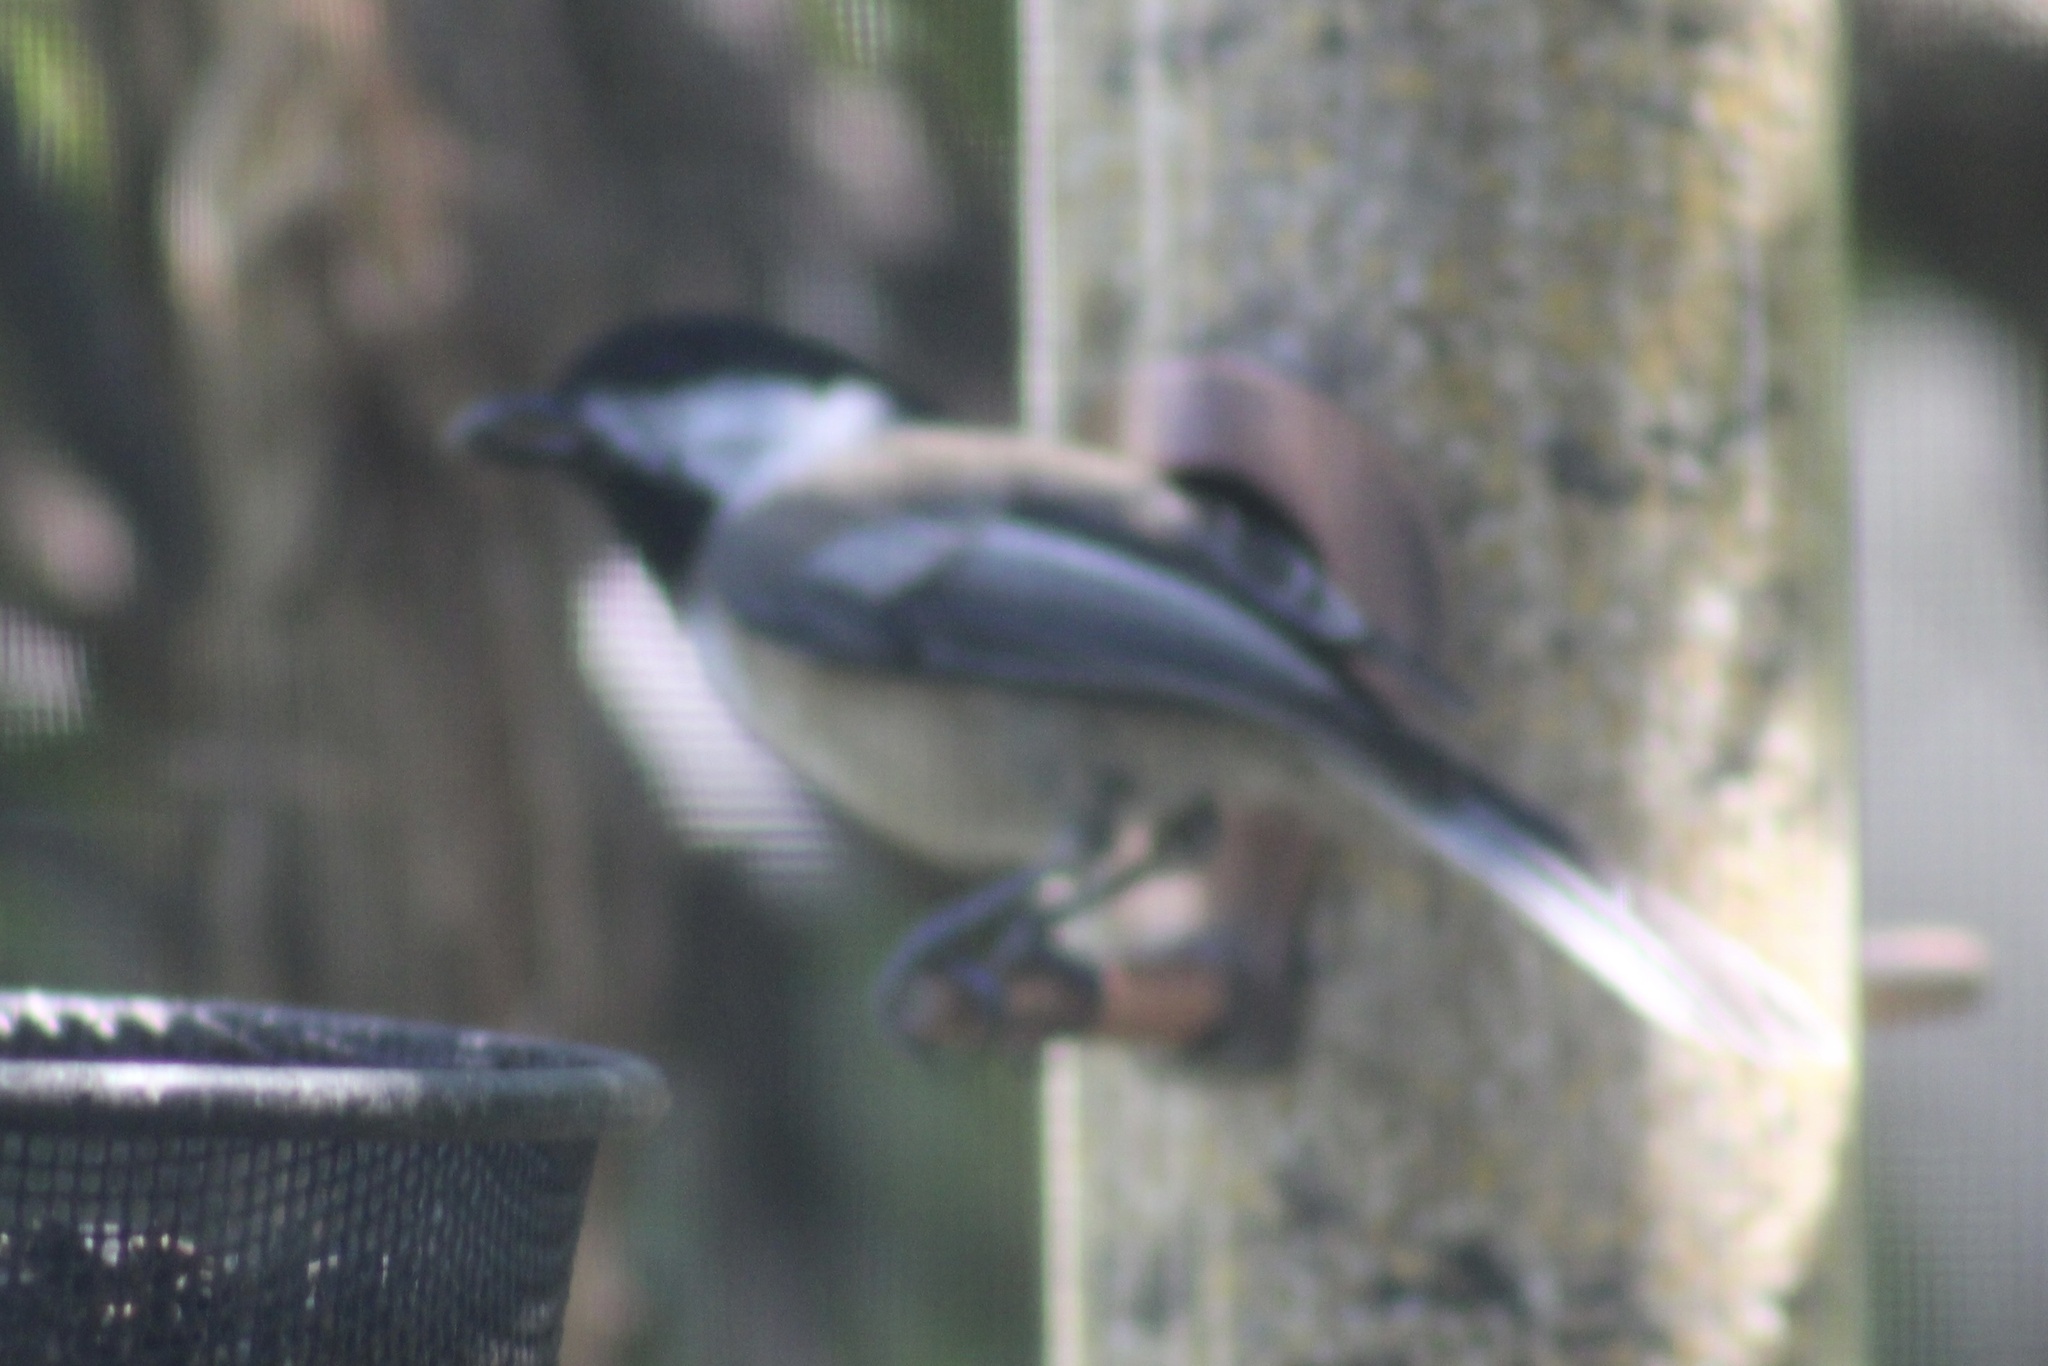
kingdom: Animalia
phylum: Chordata
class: Aves
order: Passeriformes
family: Paridae
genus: Poecile
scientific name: Poecile atricapillus
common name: Black-capped chickadee
